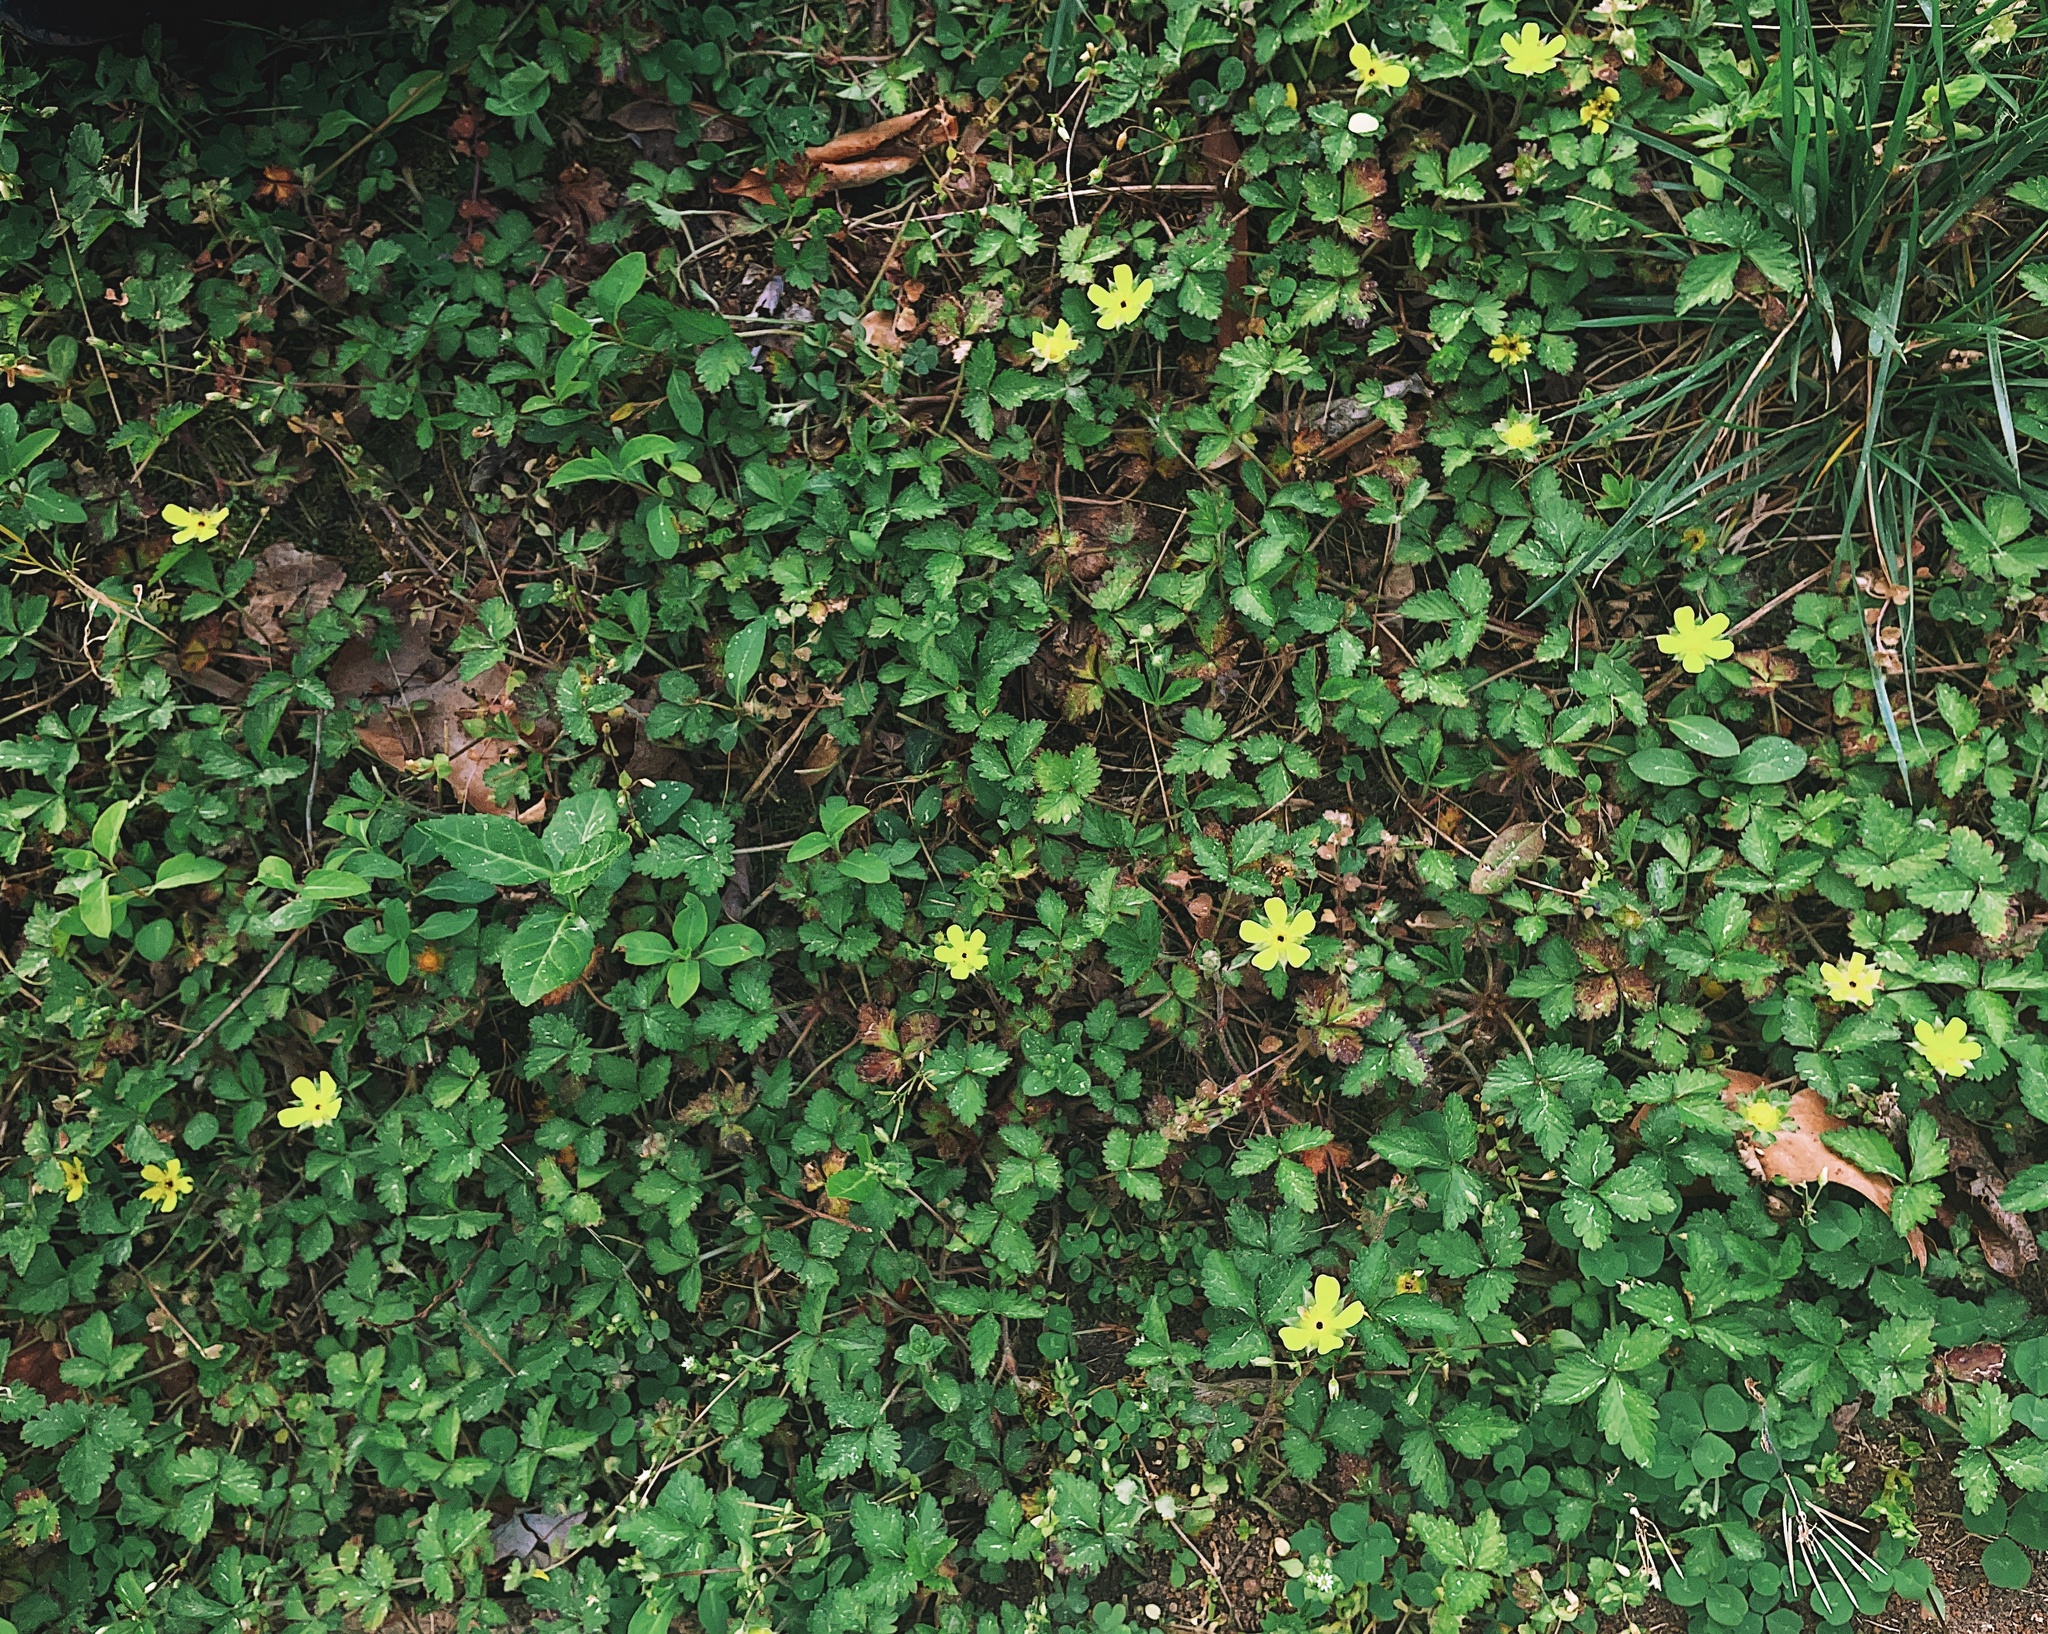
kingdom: Plantae
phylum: Tracheophyta
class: Magnoliopsida
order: Rosales
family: Rosaceae
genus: Potentilla
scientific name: Potentilla indica
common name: Yellow-flowered strawberry
